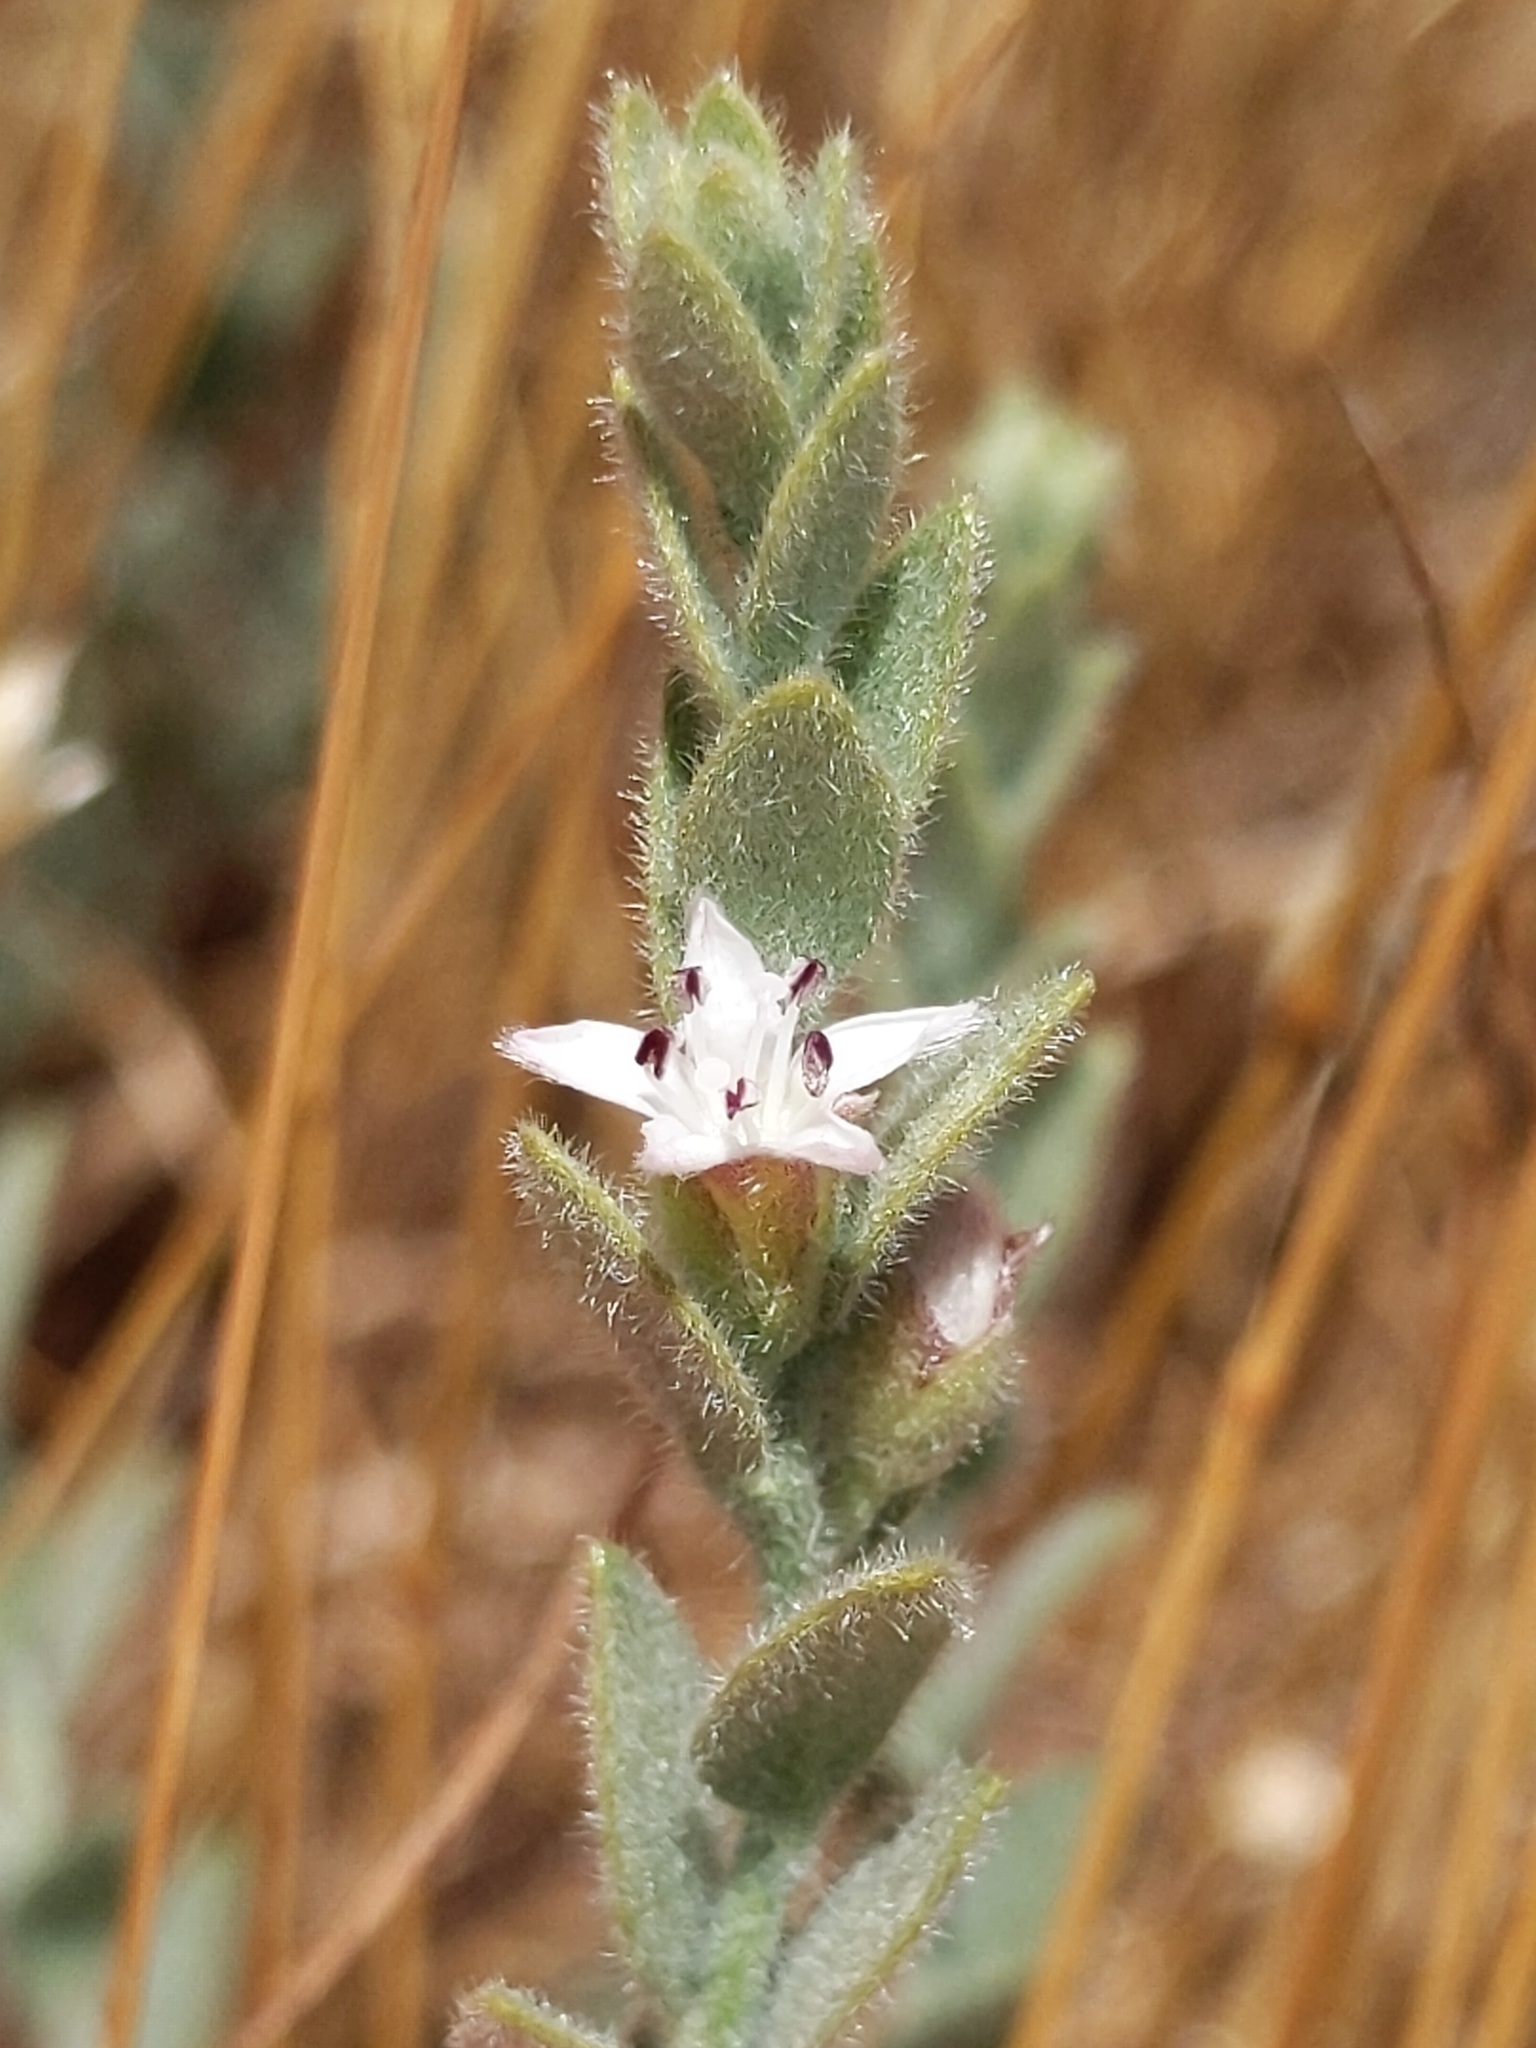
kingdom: Plantae
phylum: Tracheophyta
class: Magnoliopsida
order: Solanales
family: Convolvulaceae
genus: Cressa
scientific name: Cressa truxillensis
